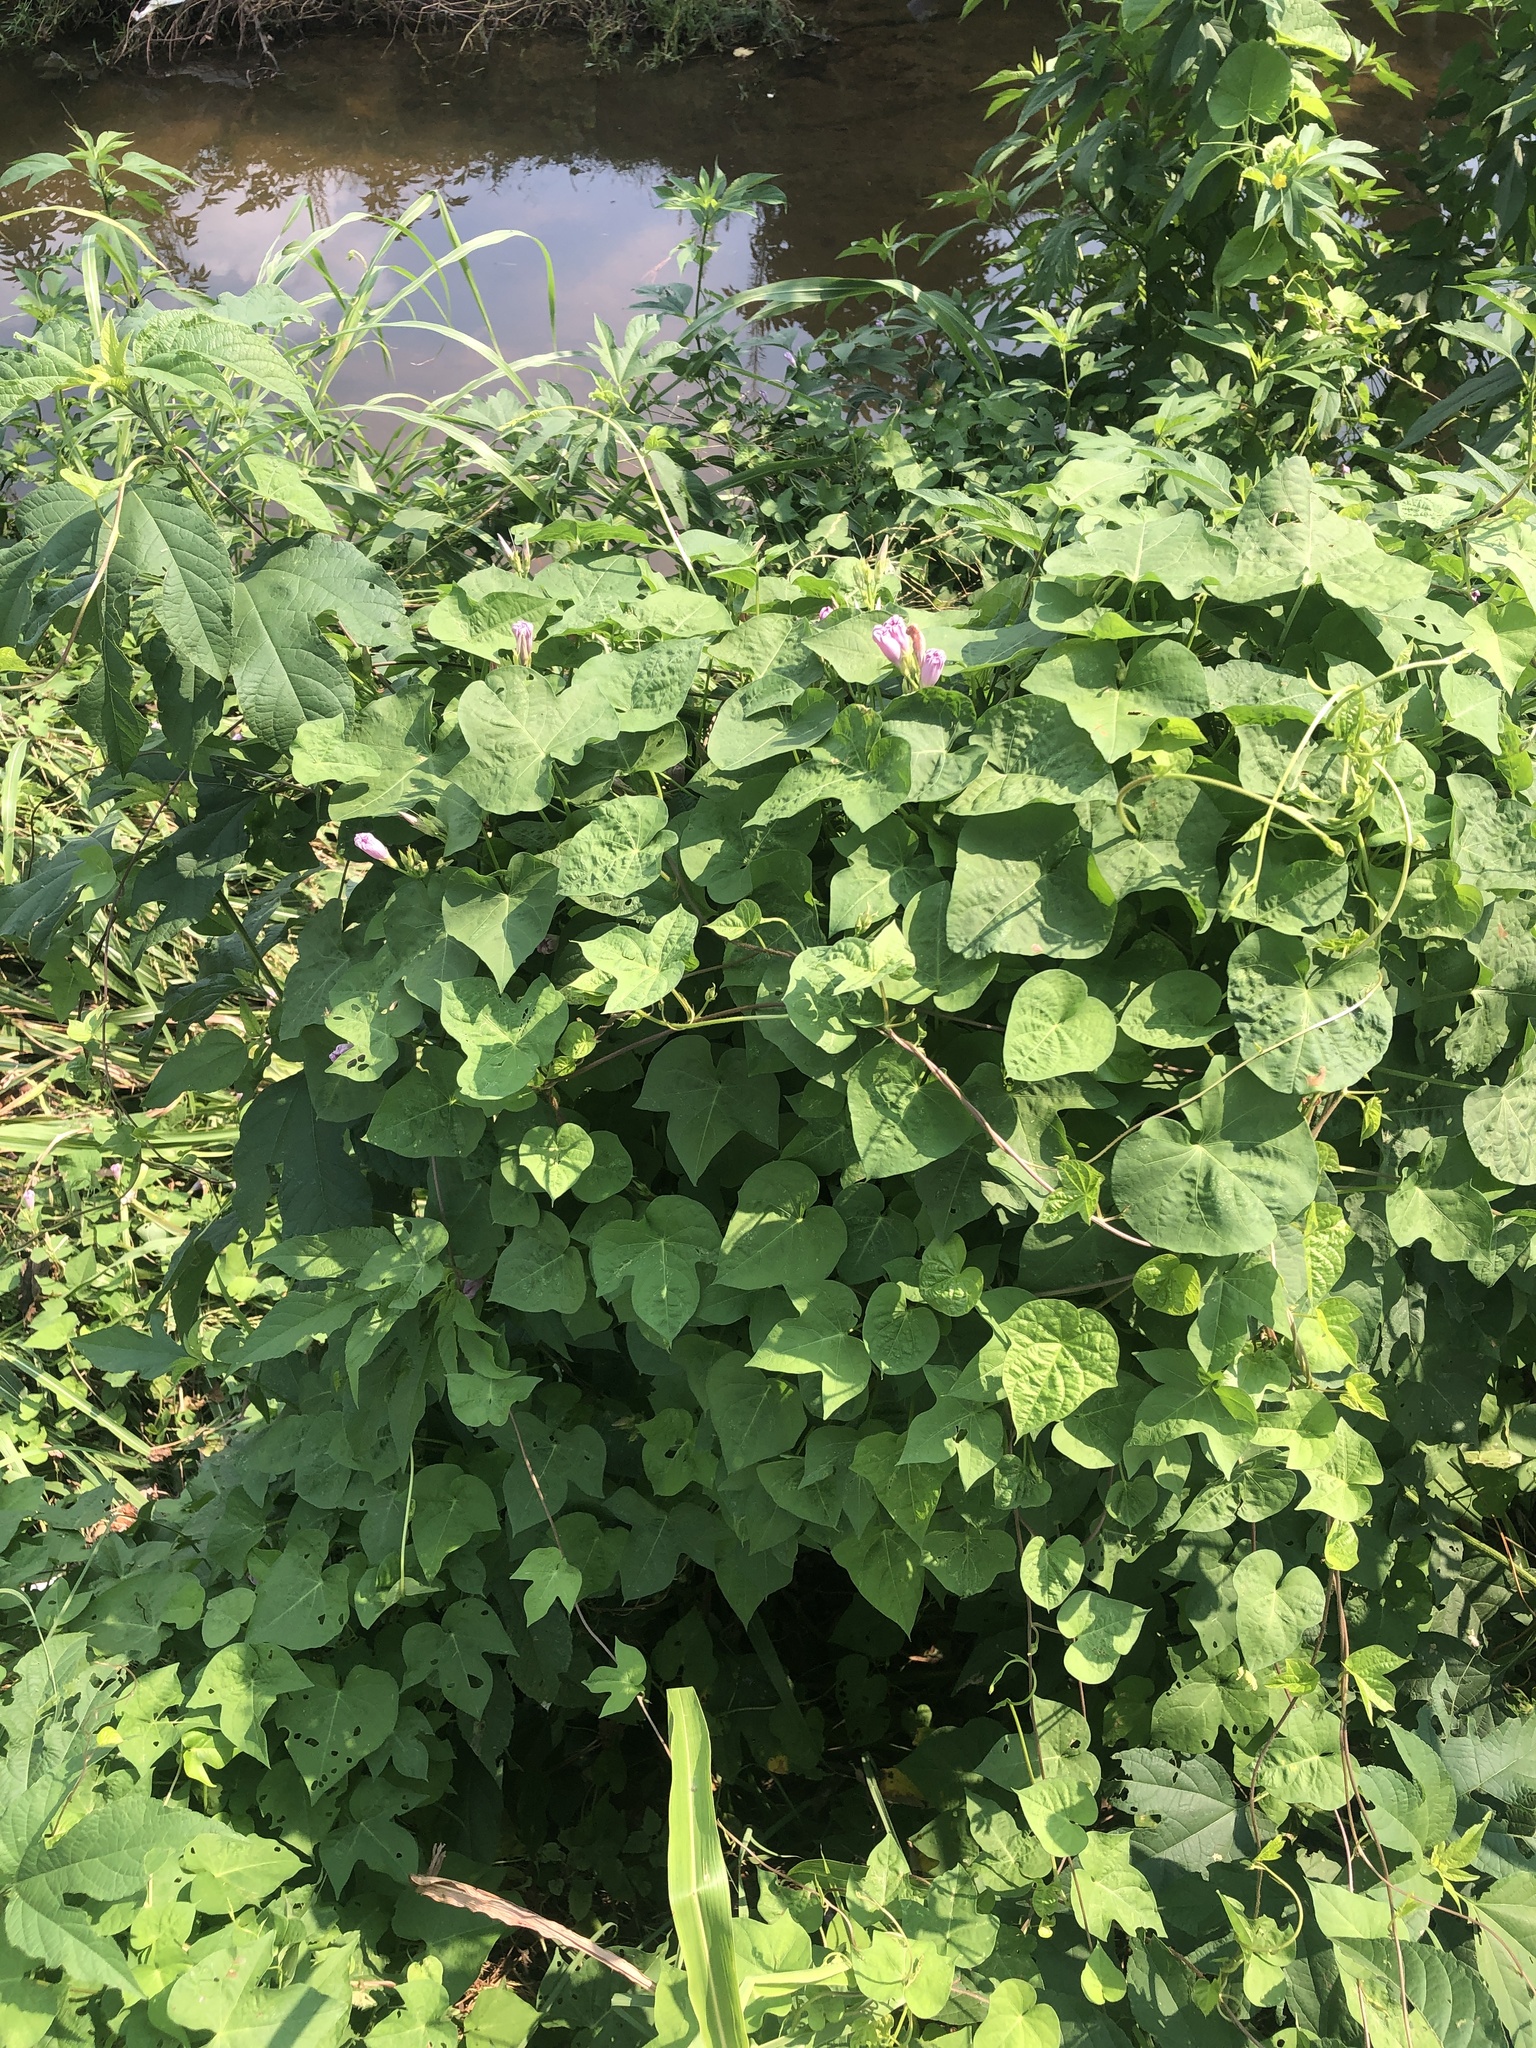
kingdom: Plantae
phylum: Tracheophyta
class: Magnoliopsida
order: Solanales
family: Convolvulaceae
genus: Ipomoea
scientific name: Ipomoea cordatotriloba
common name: Cotton morning glory
